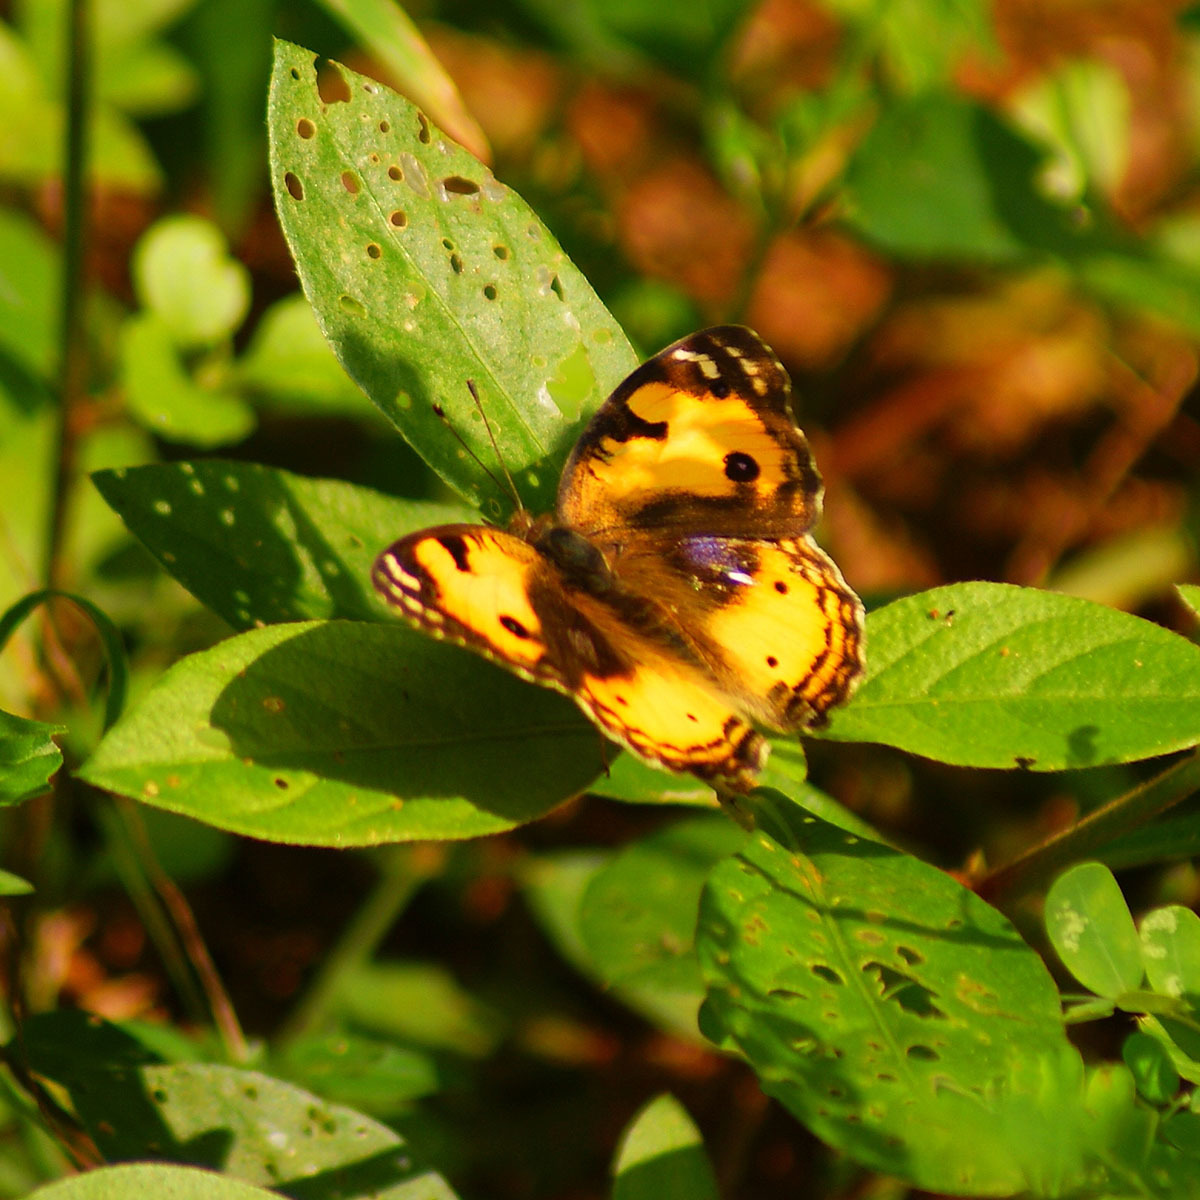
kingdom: Animalia
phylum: Arthropoda
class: Insecta
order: Lepidoptera
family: Nymphalidae
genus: Junonia
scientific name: Junonia hierta
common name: Yellow pansy
